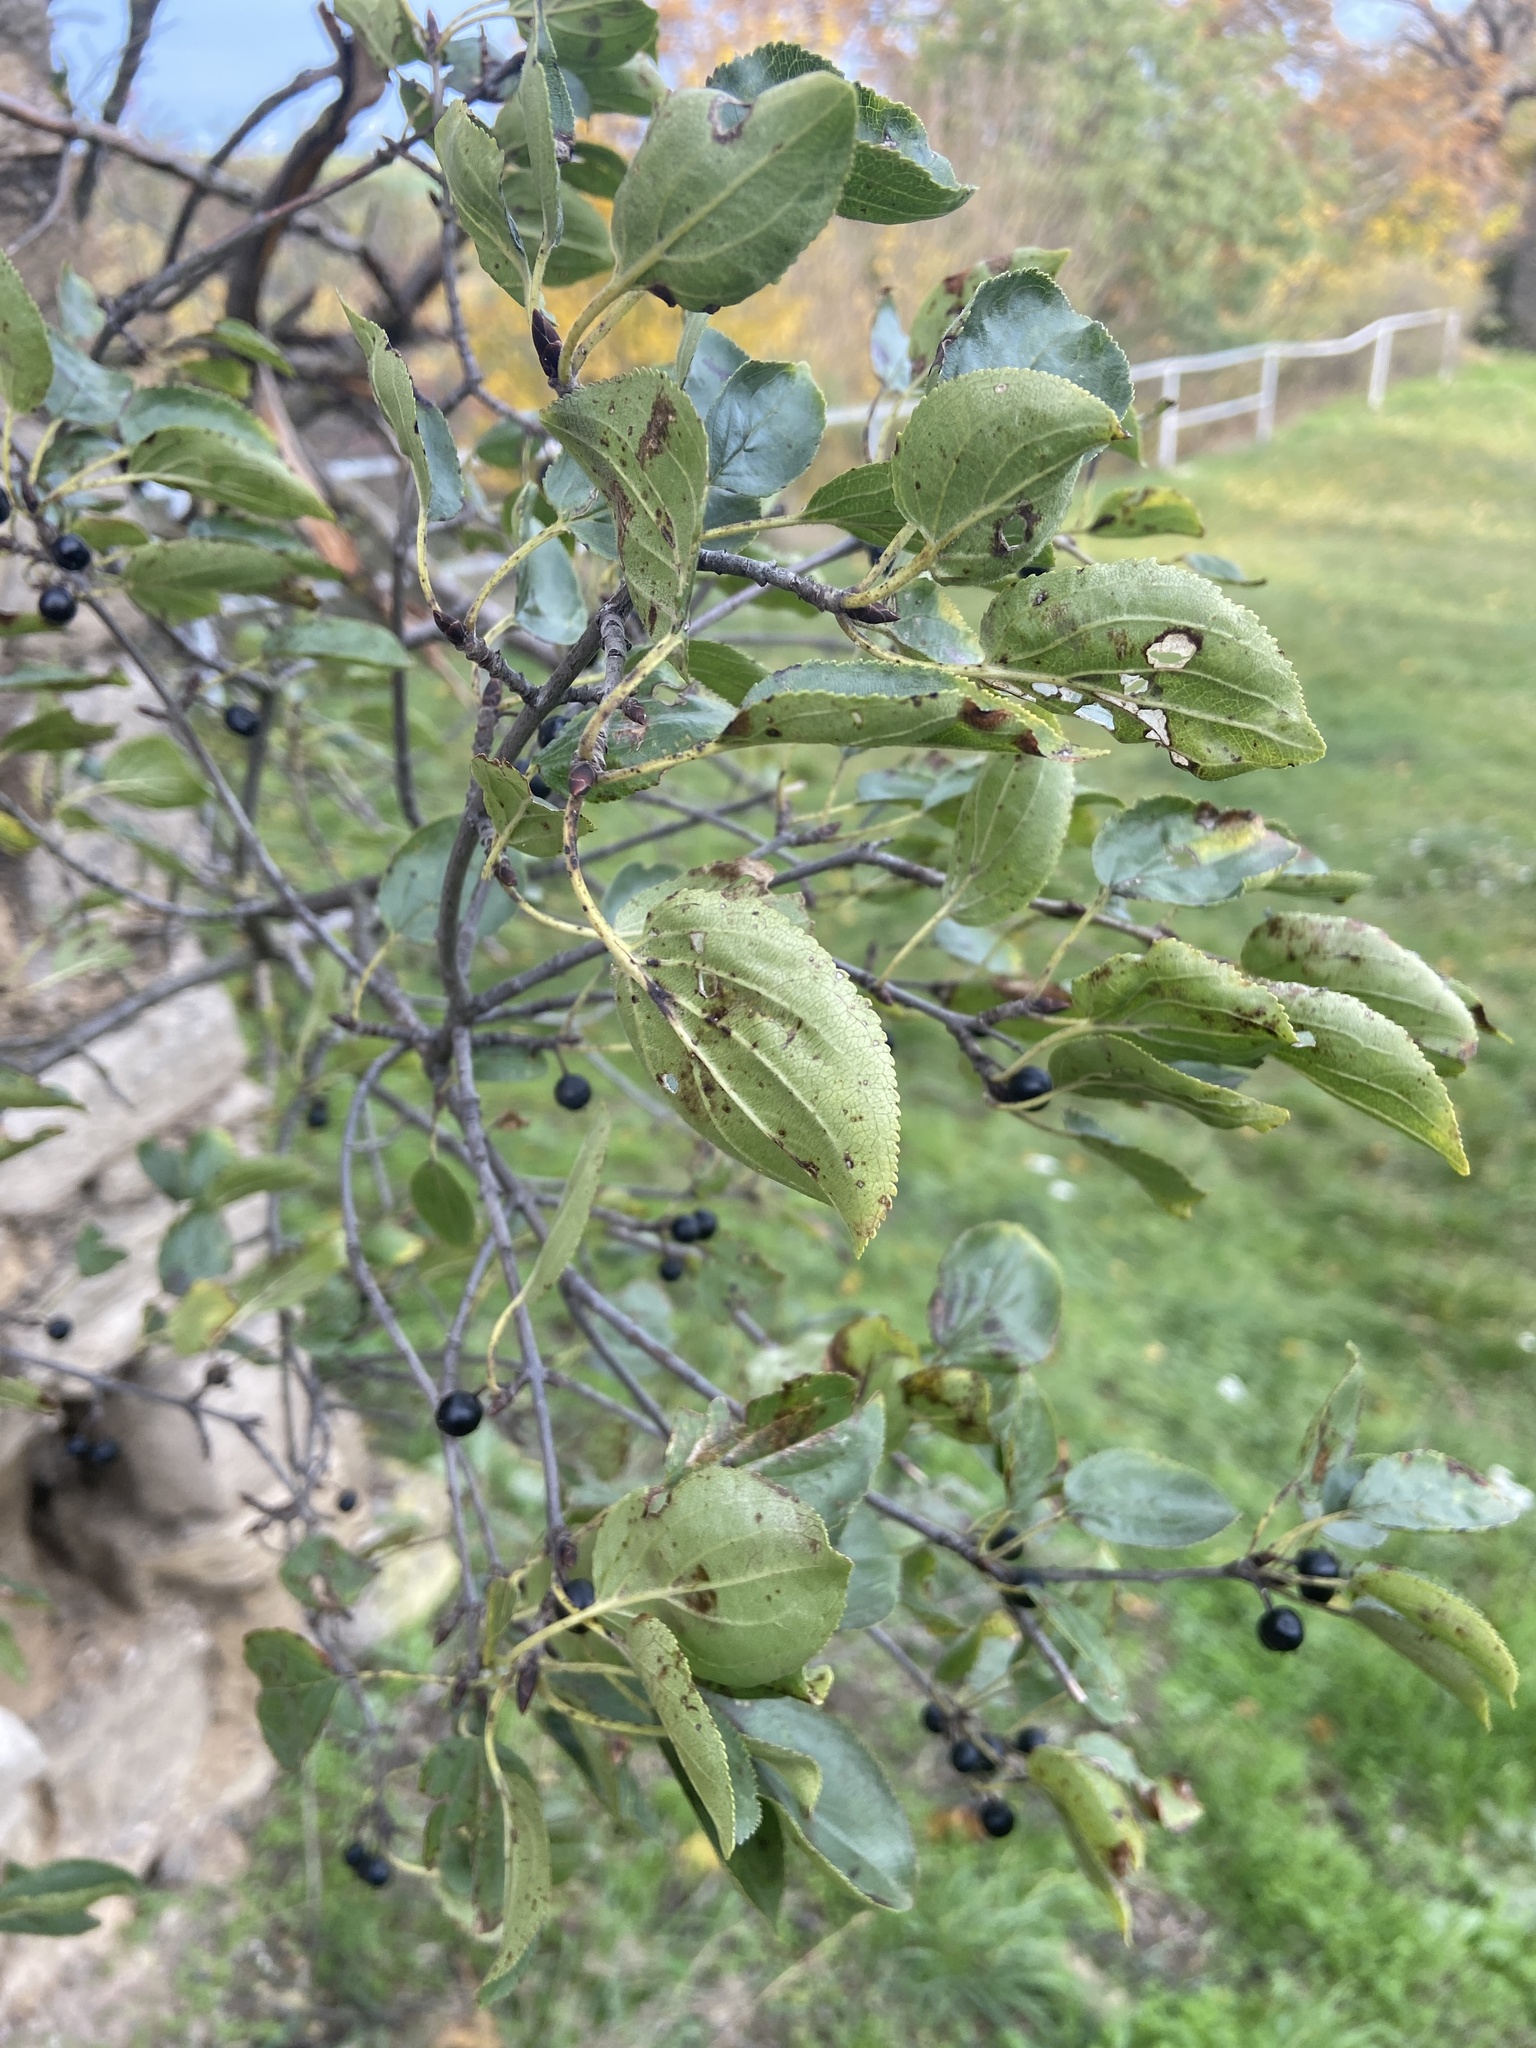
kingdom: Plantae
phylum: Tracheophyta
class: Magnoliopsida
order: Rosales
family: Rhamnaceae
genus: Rhamnus
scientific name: Rhamnus cathartica
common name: Common buckthorn
